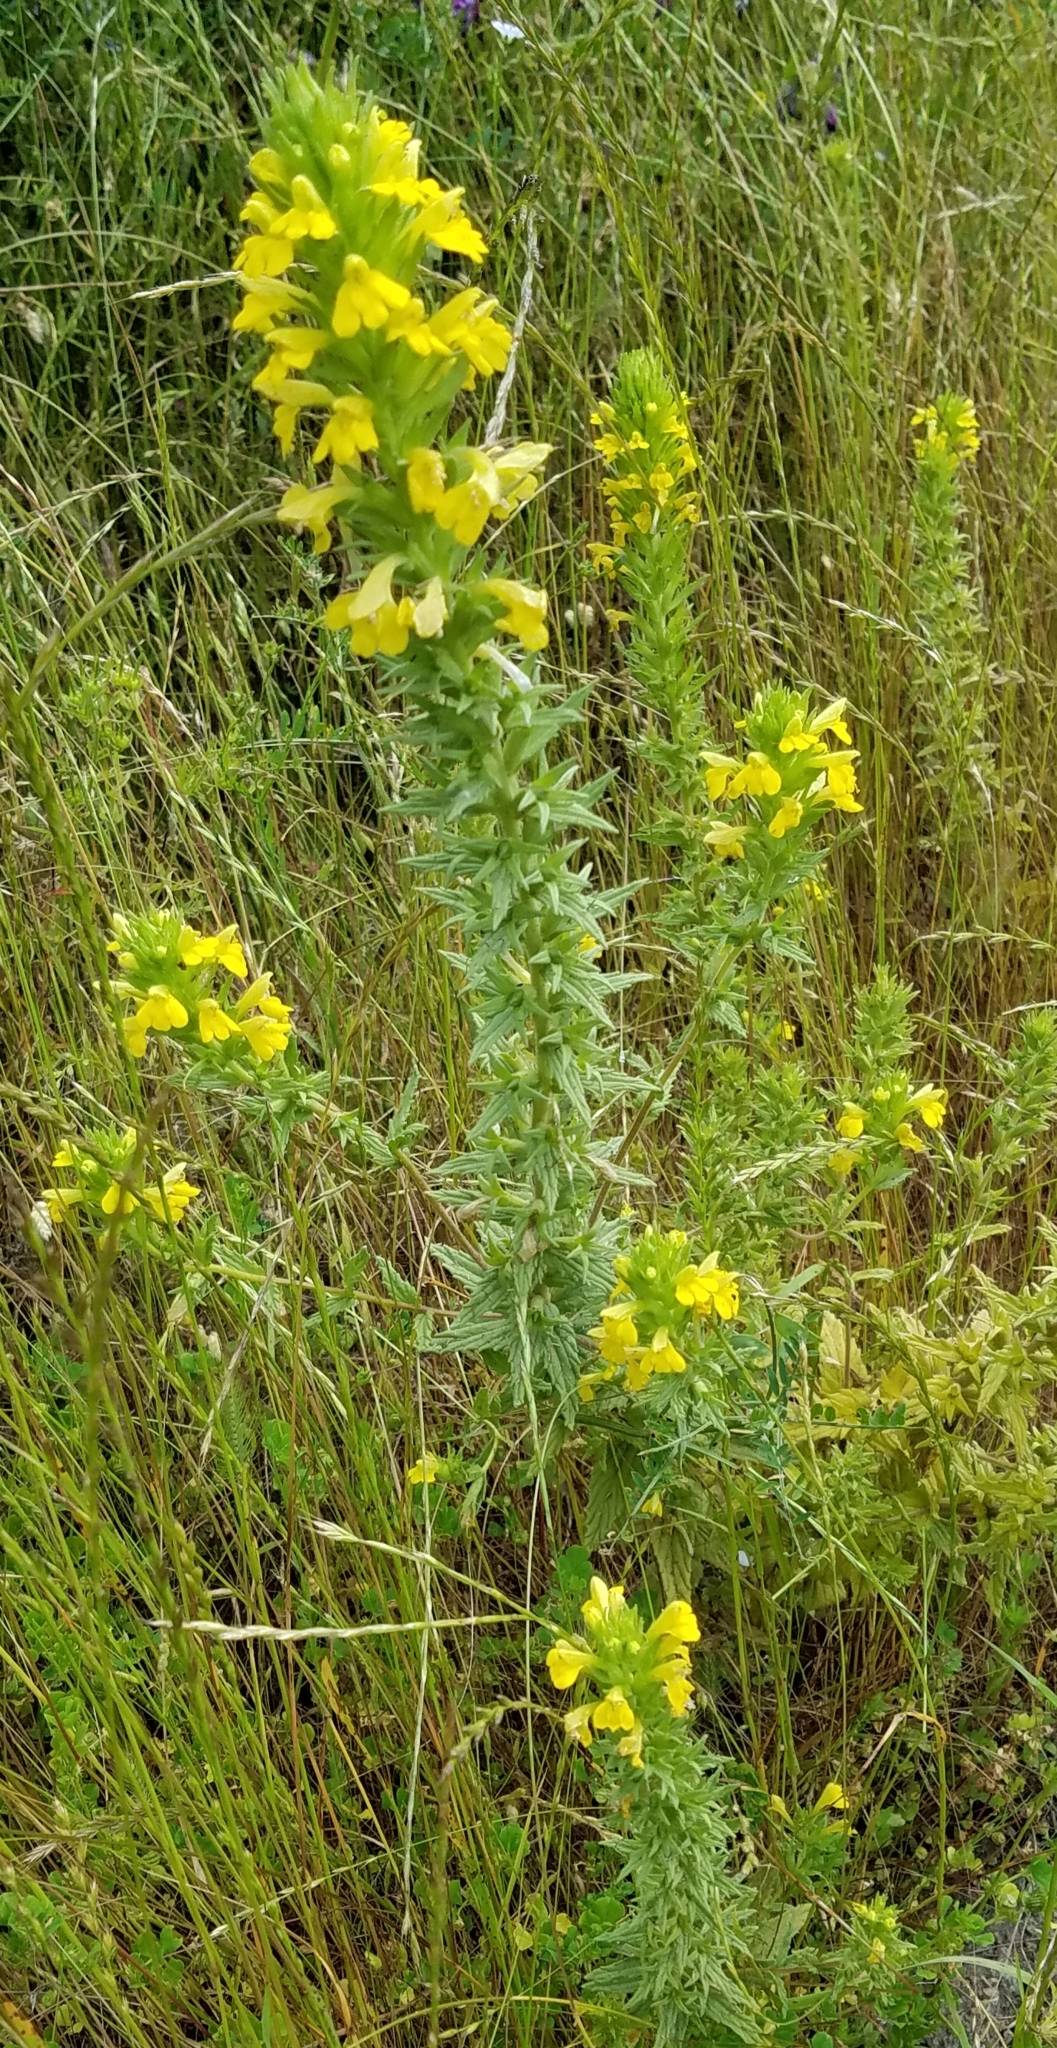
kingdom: Plantae
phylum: Tracheophyta
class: Magnoliopsida
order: Lamiales
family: Orobanchaceae
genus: Bellardia
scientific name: Bellardia viscosa
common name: Sticky parentucellia
